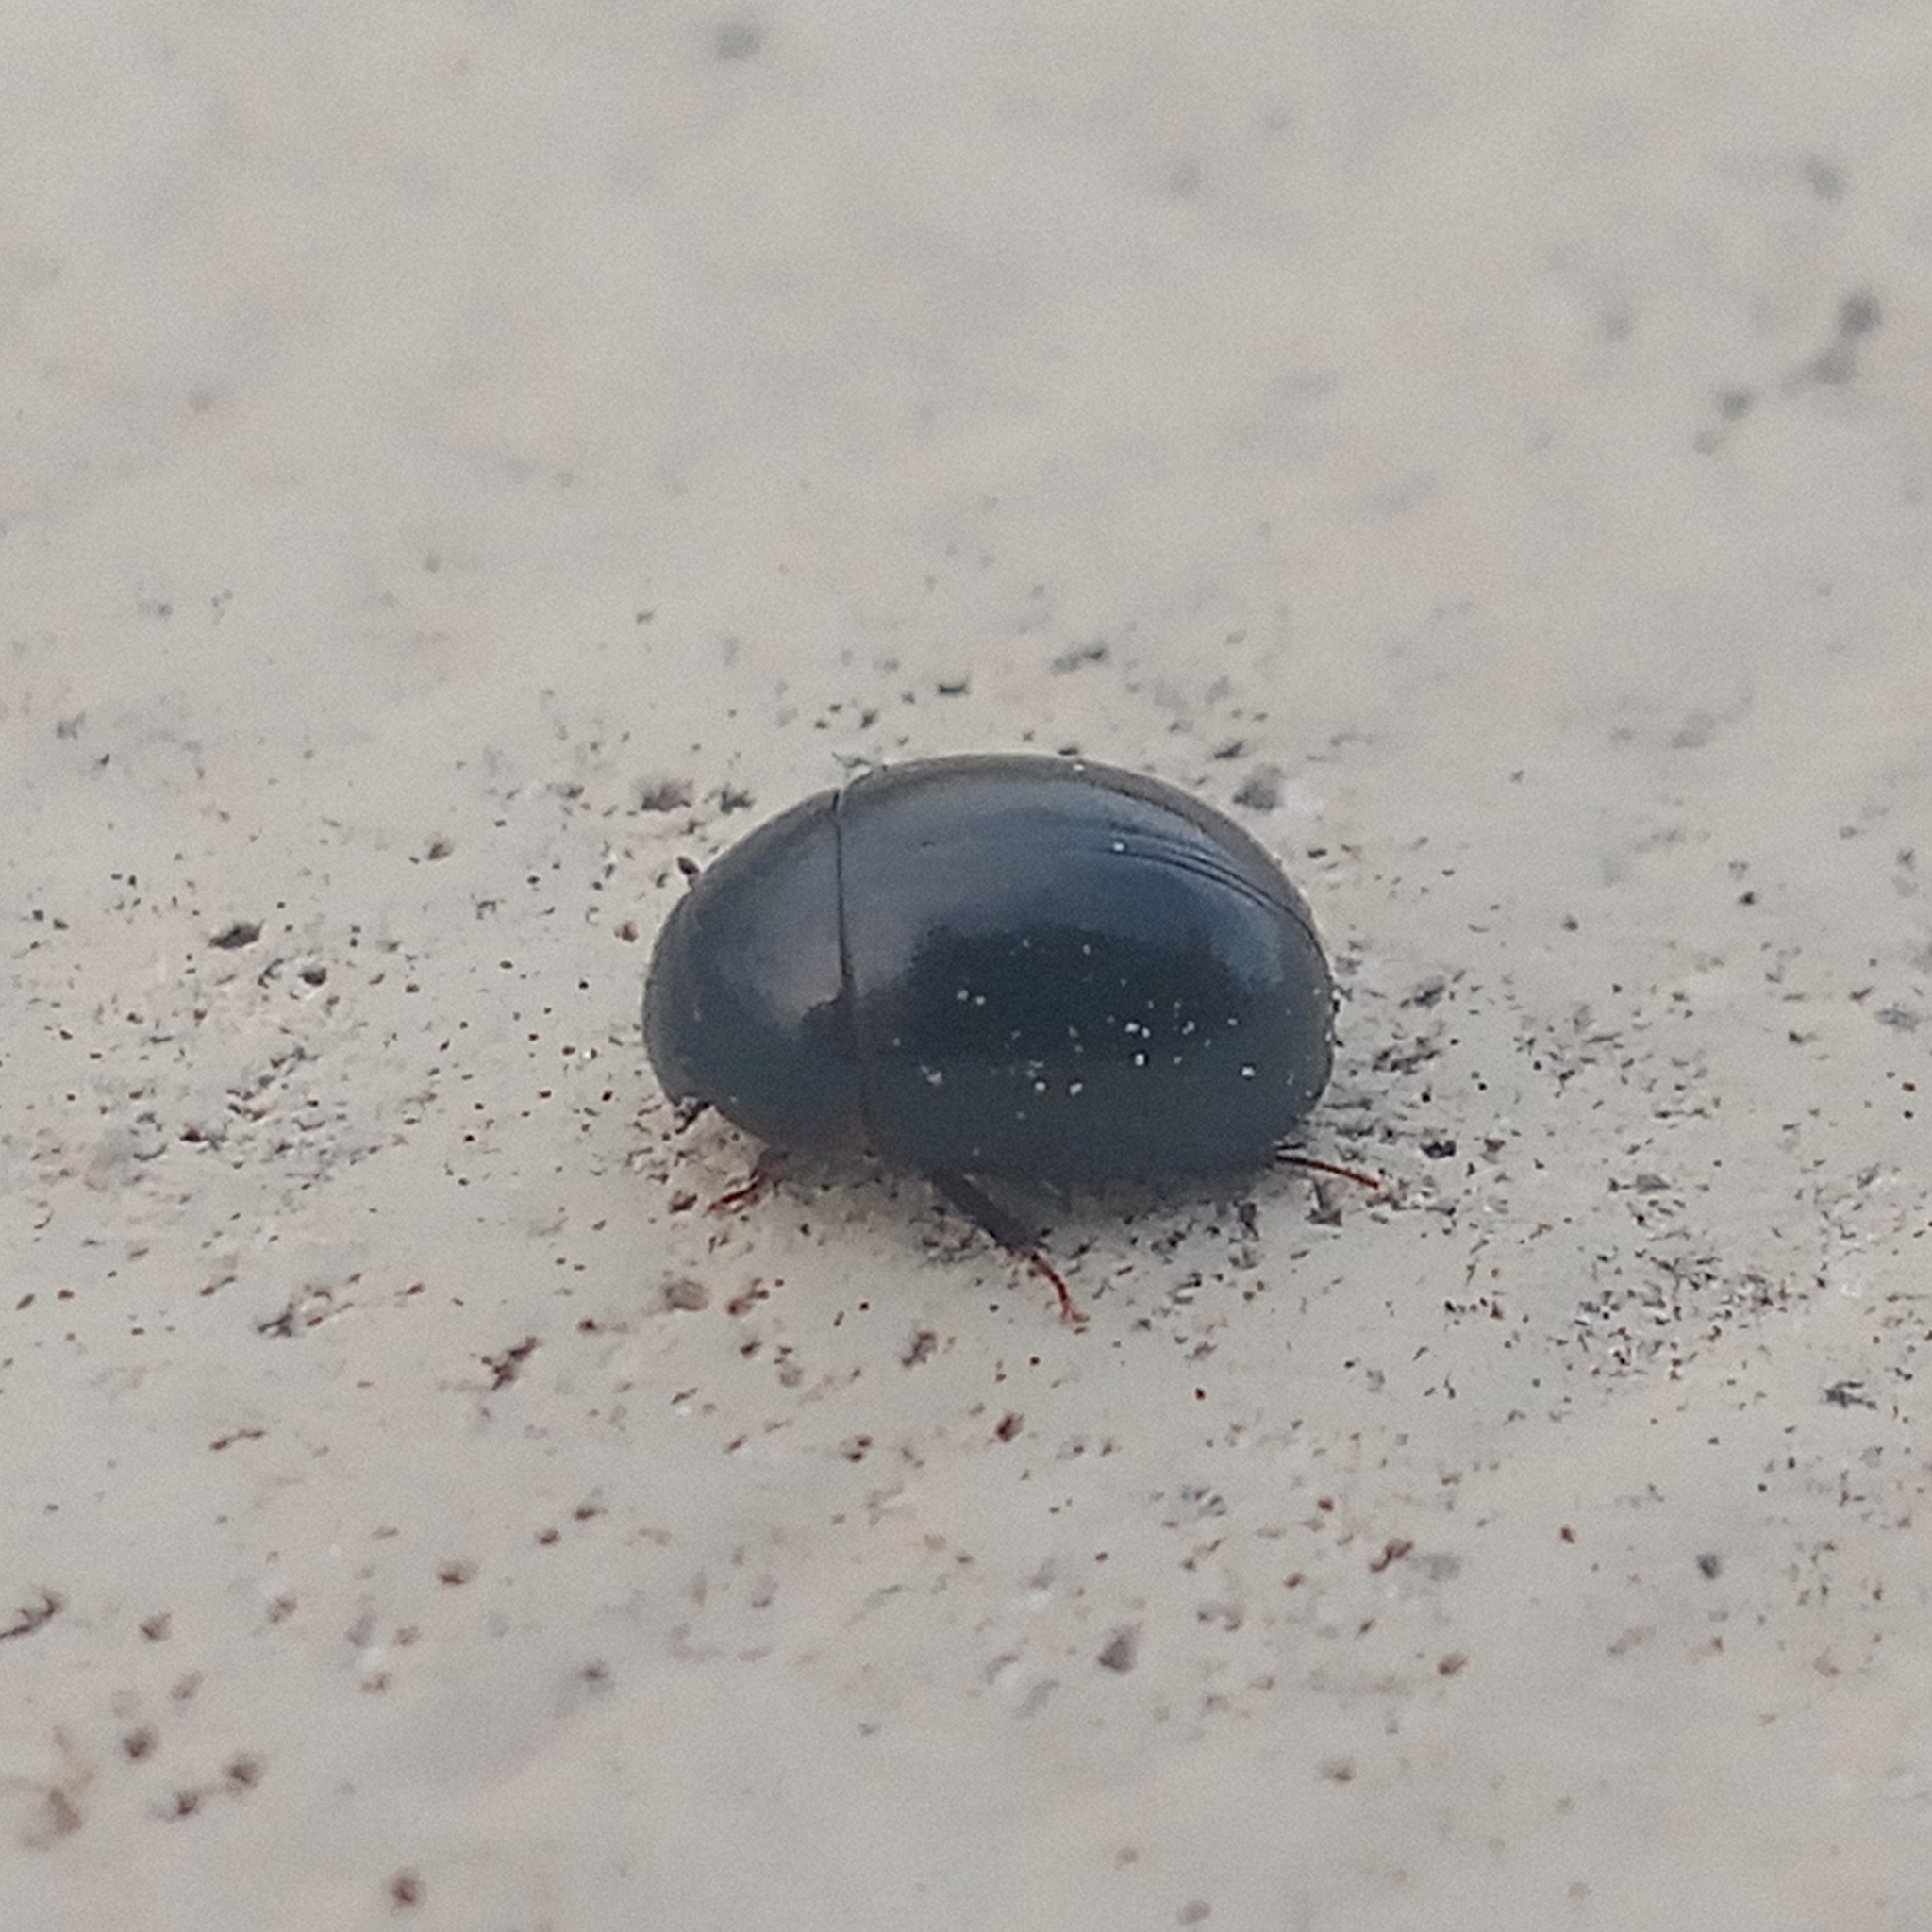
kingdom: Animalia
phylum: Arthropoda
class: Insecta
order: Coleoptera
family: Hydrophilidae
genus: Coelostoma
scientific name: Coelostoma orbiculare
